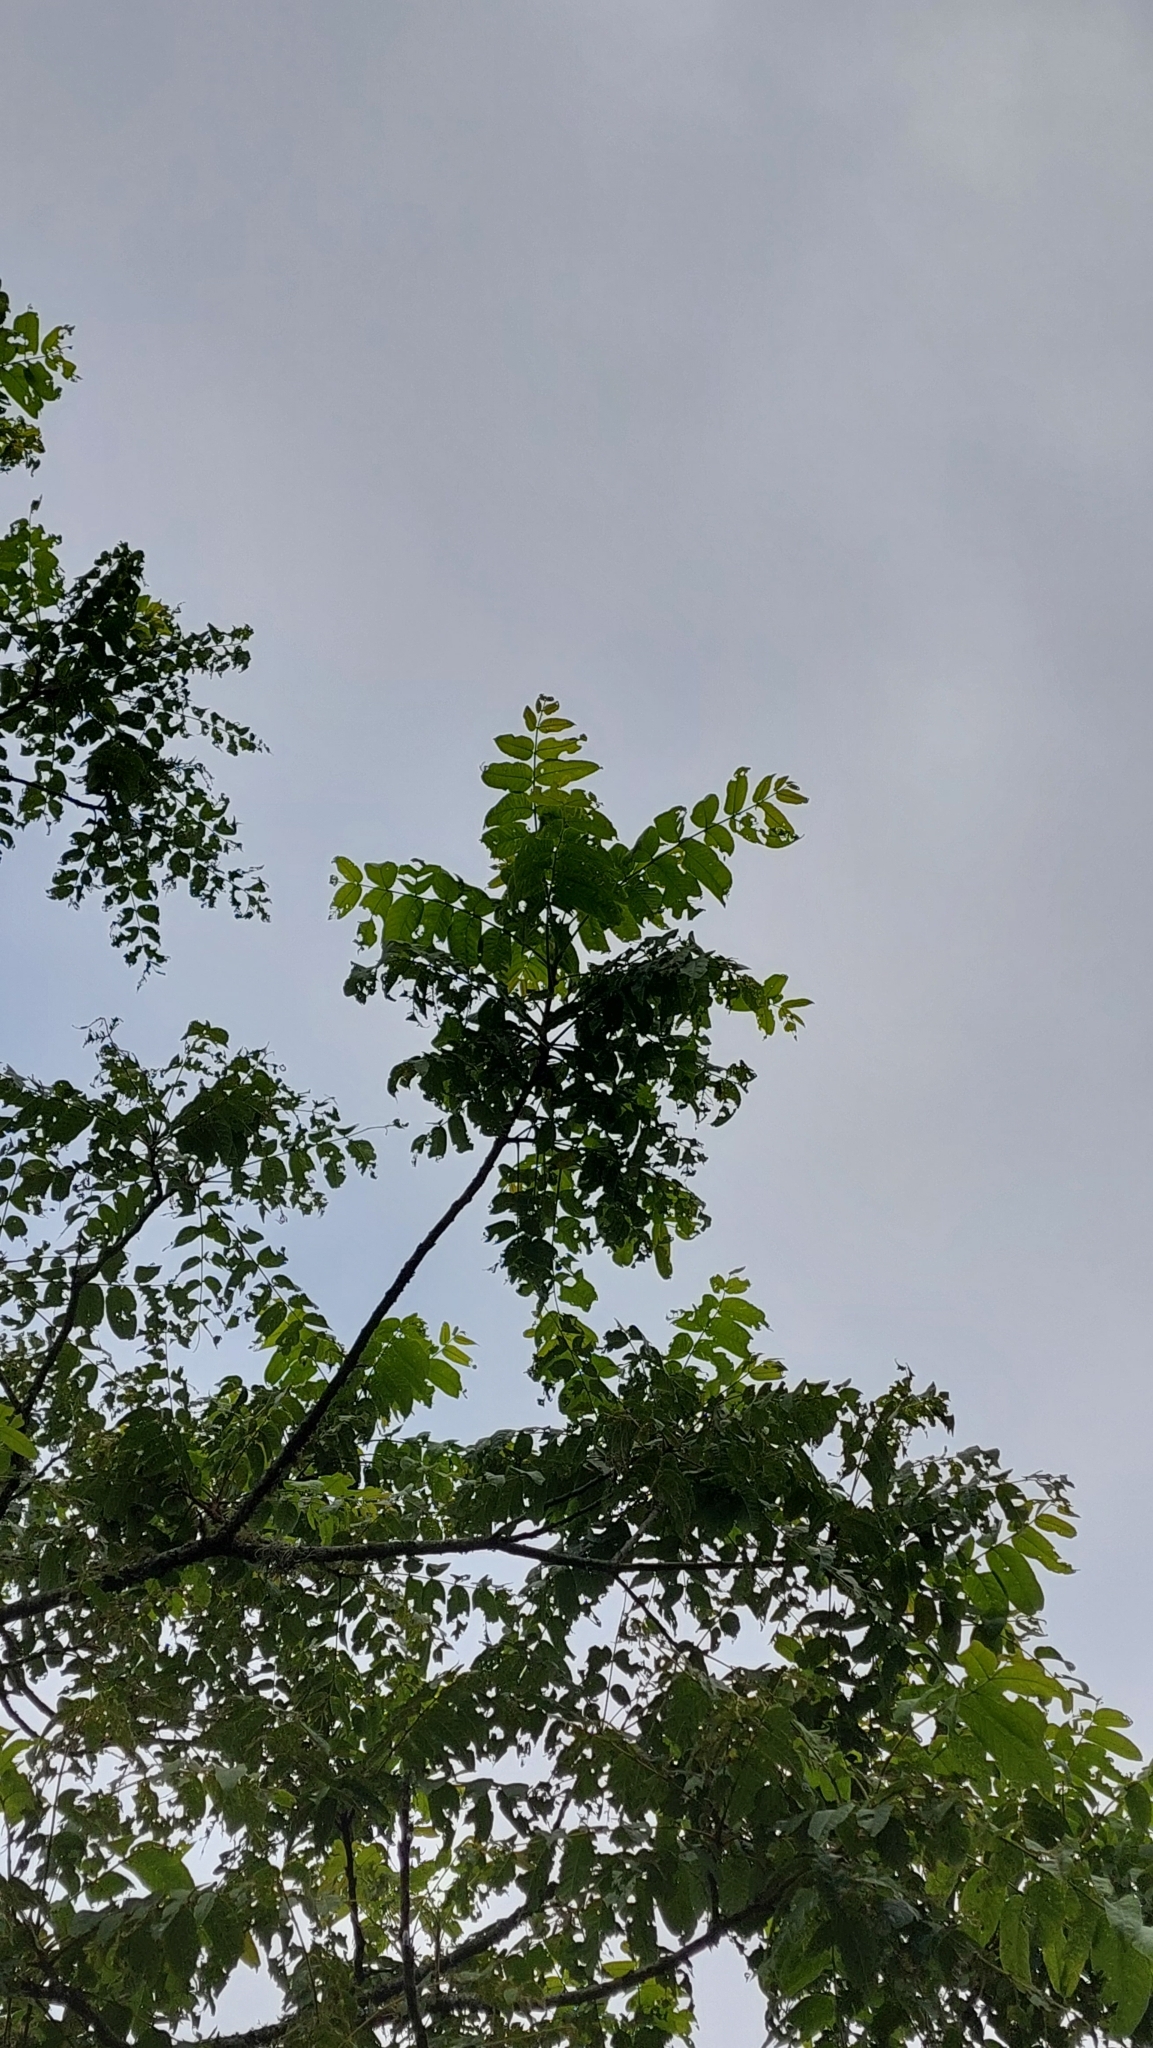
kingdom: Plantae
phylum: Tracheophyta
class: Magnoliopsida
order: Fagales
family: Juglandaceae
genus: Juglans
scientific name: Juglans australis
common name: Argentine walnut
